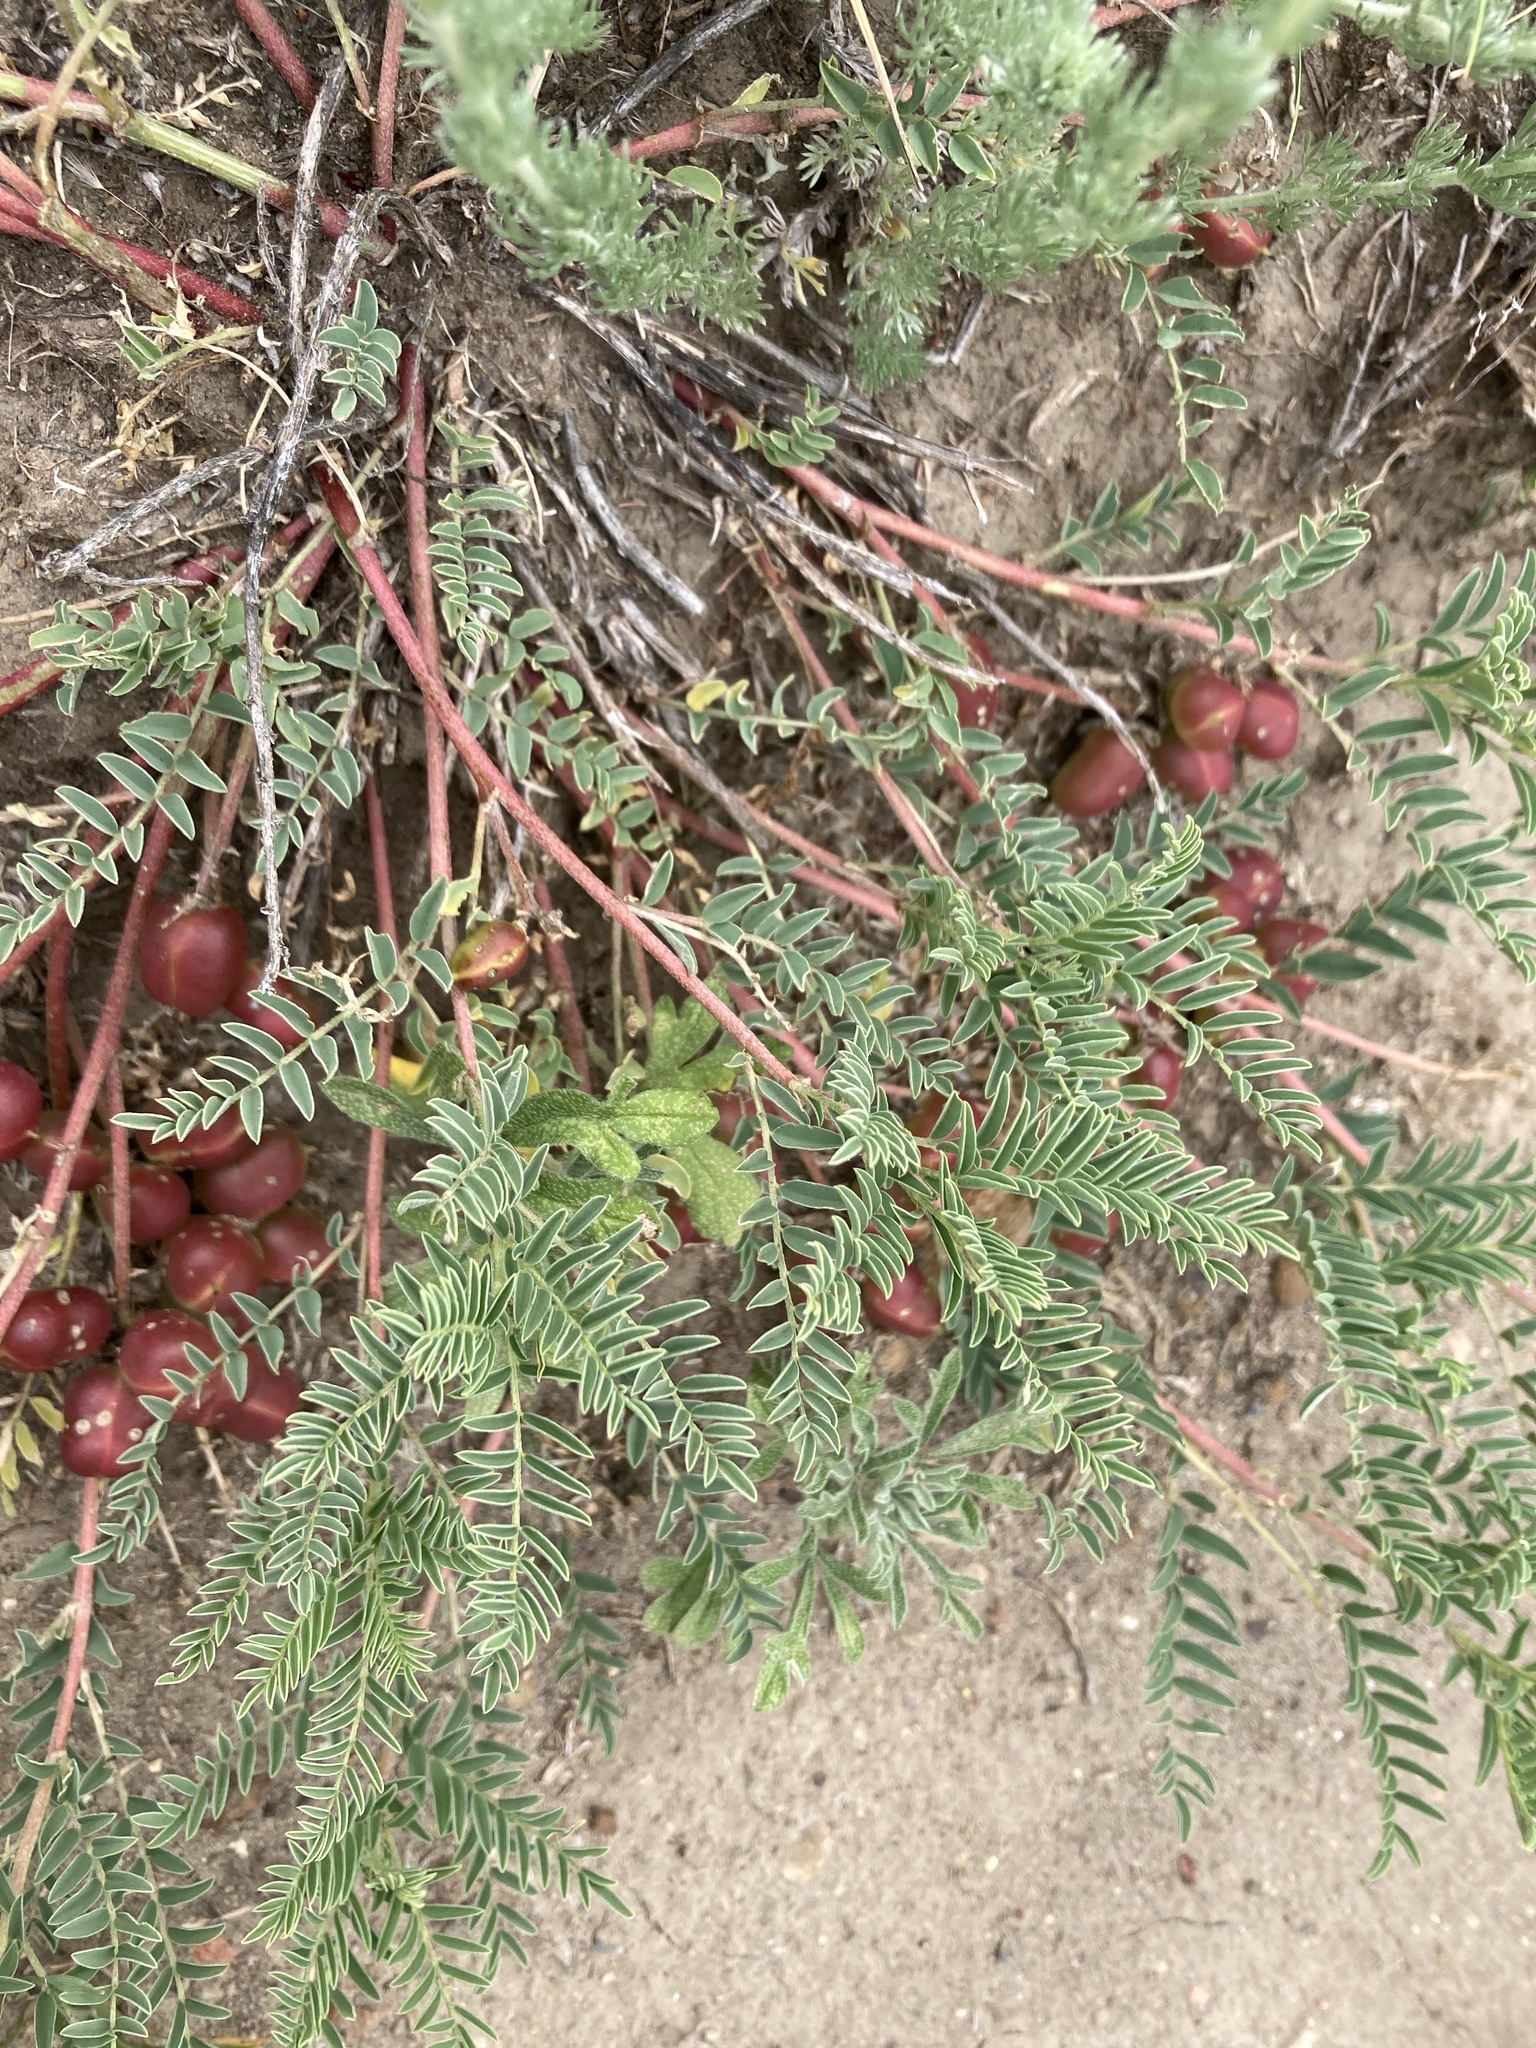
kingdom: Plantae
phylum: Tracheophyta
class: Magnoliopsida
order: Fabales
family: Fabaceae
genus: Astragalus
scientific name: Astragalus crassicarpus
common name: Ground-plum milk-vetch
